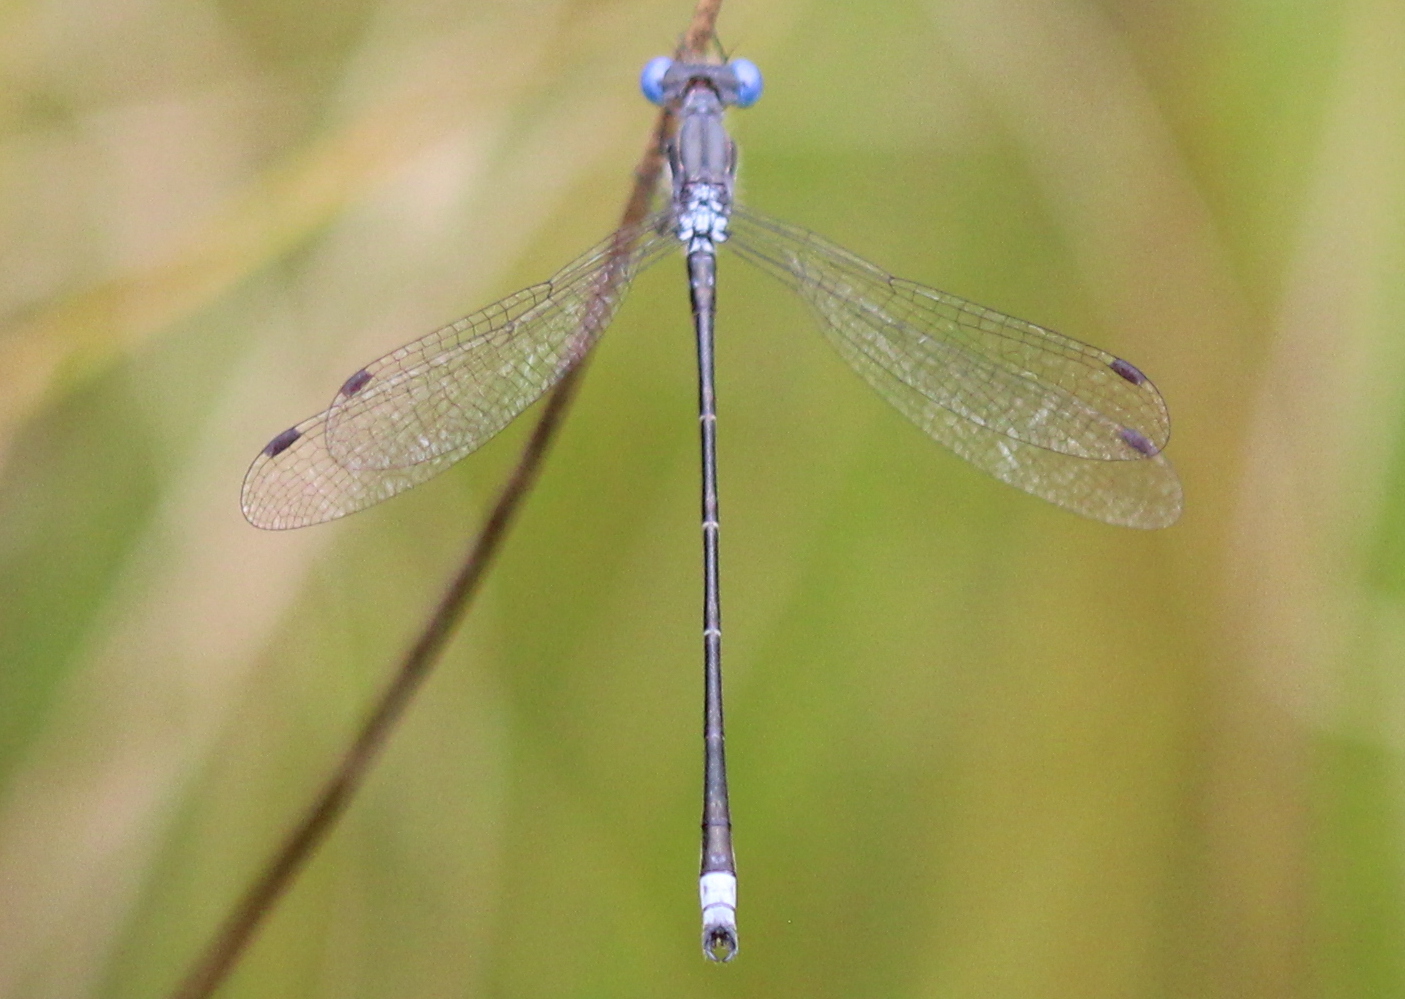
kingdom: Animalia
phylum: Arthropoda
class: Insecta
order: Odonata
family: Lestidae
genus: Lestes
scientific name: Lestes congener
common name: Spotted spreadwing
